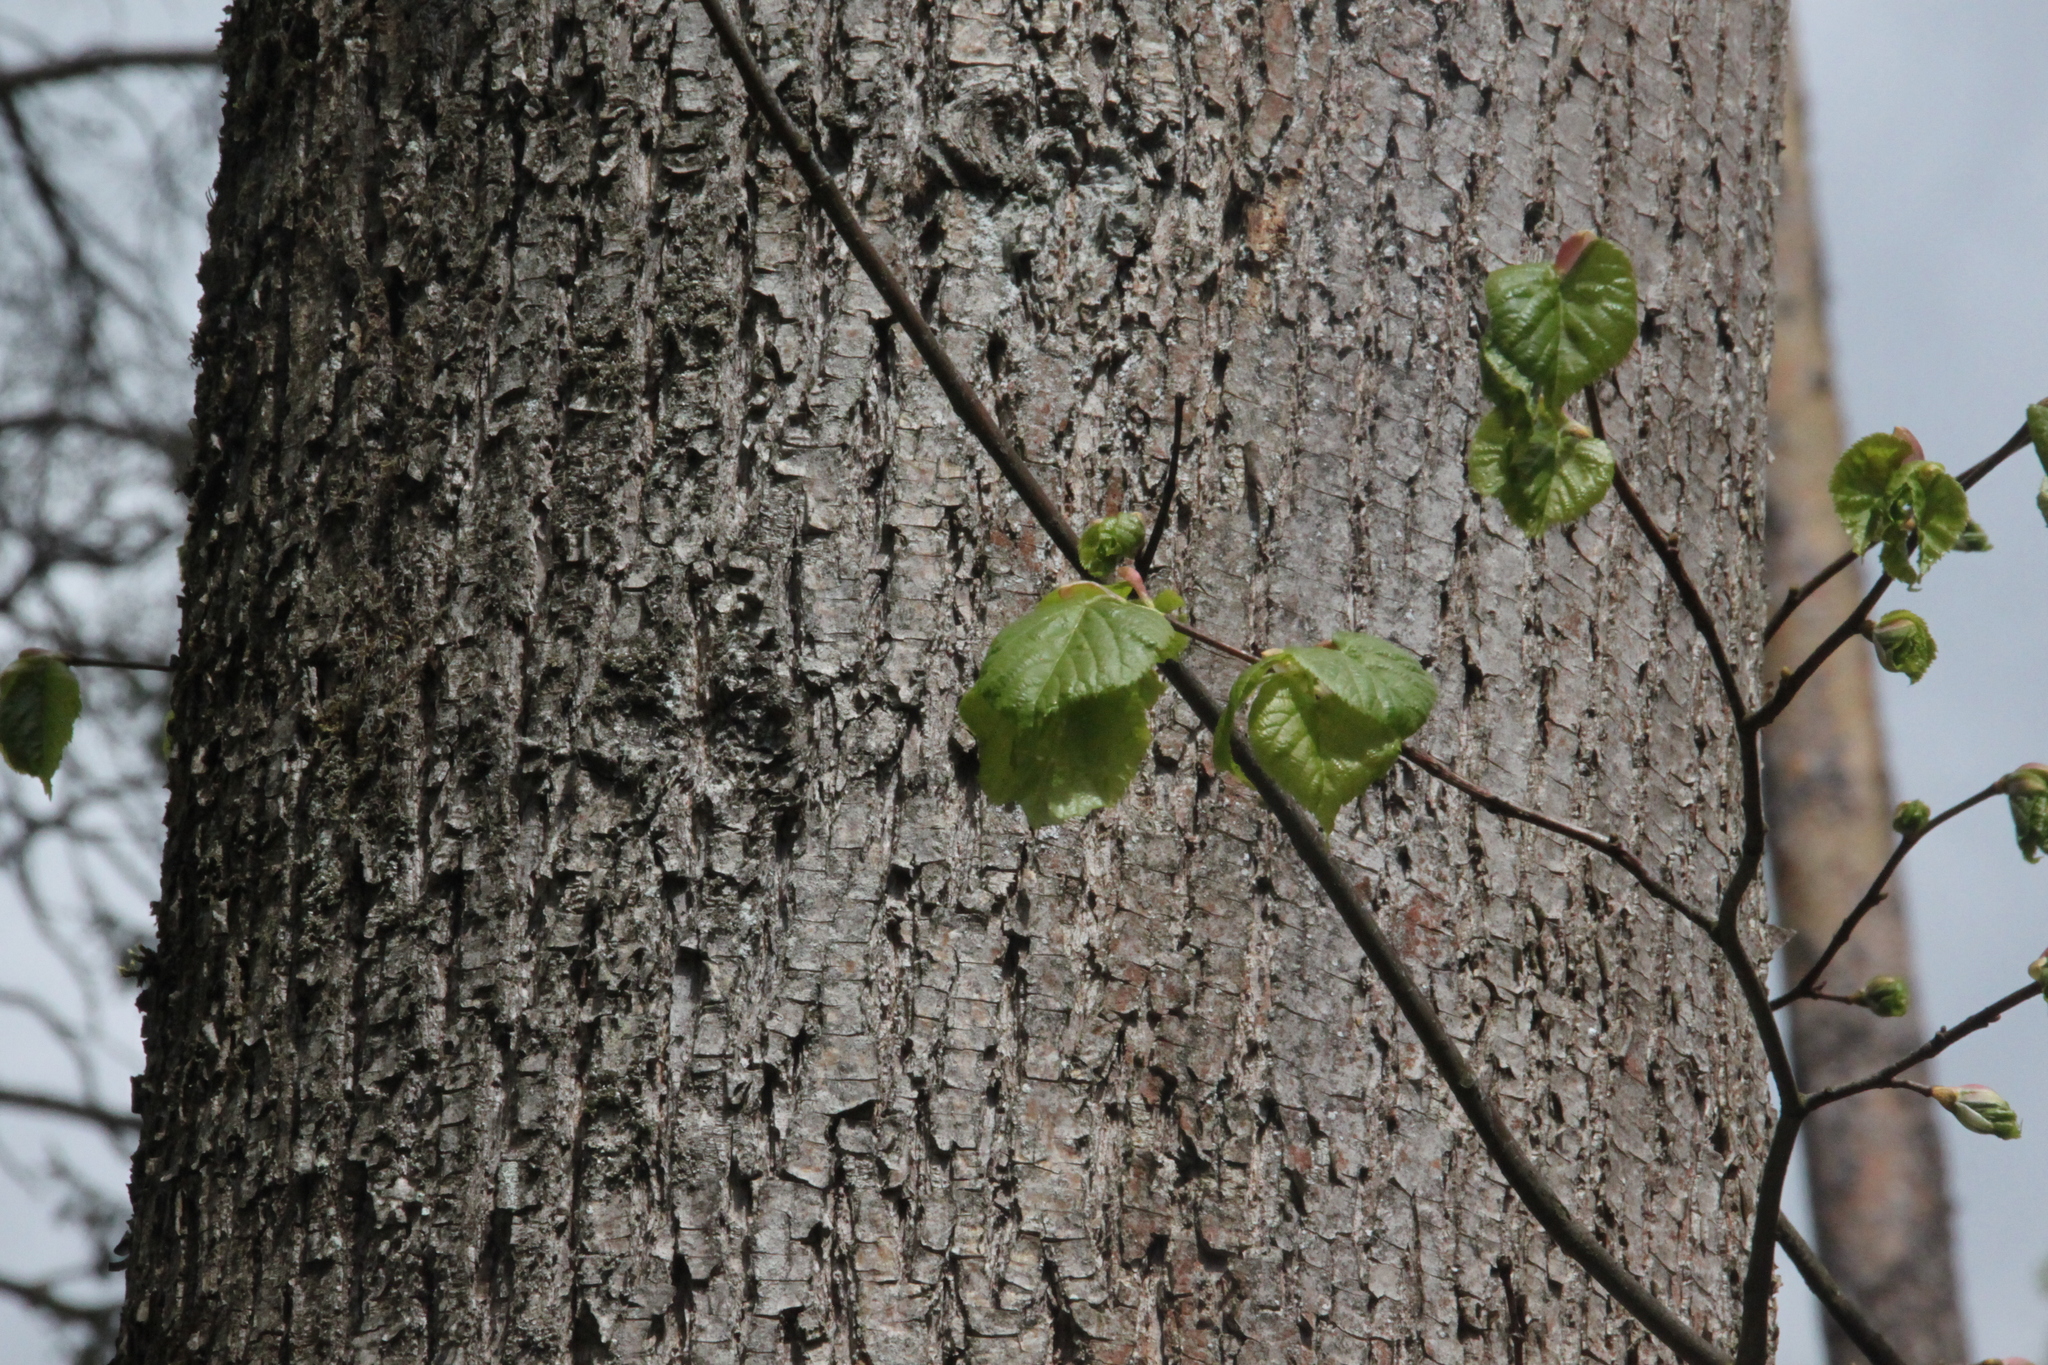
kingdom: Plantae
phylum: Tracheophyta
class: Magnoliopsida
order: Malvales
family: Malvaceae
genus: Tilia
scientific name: Tilia cordata
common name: Small-leaved lime
